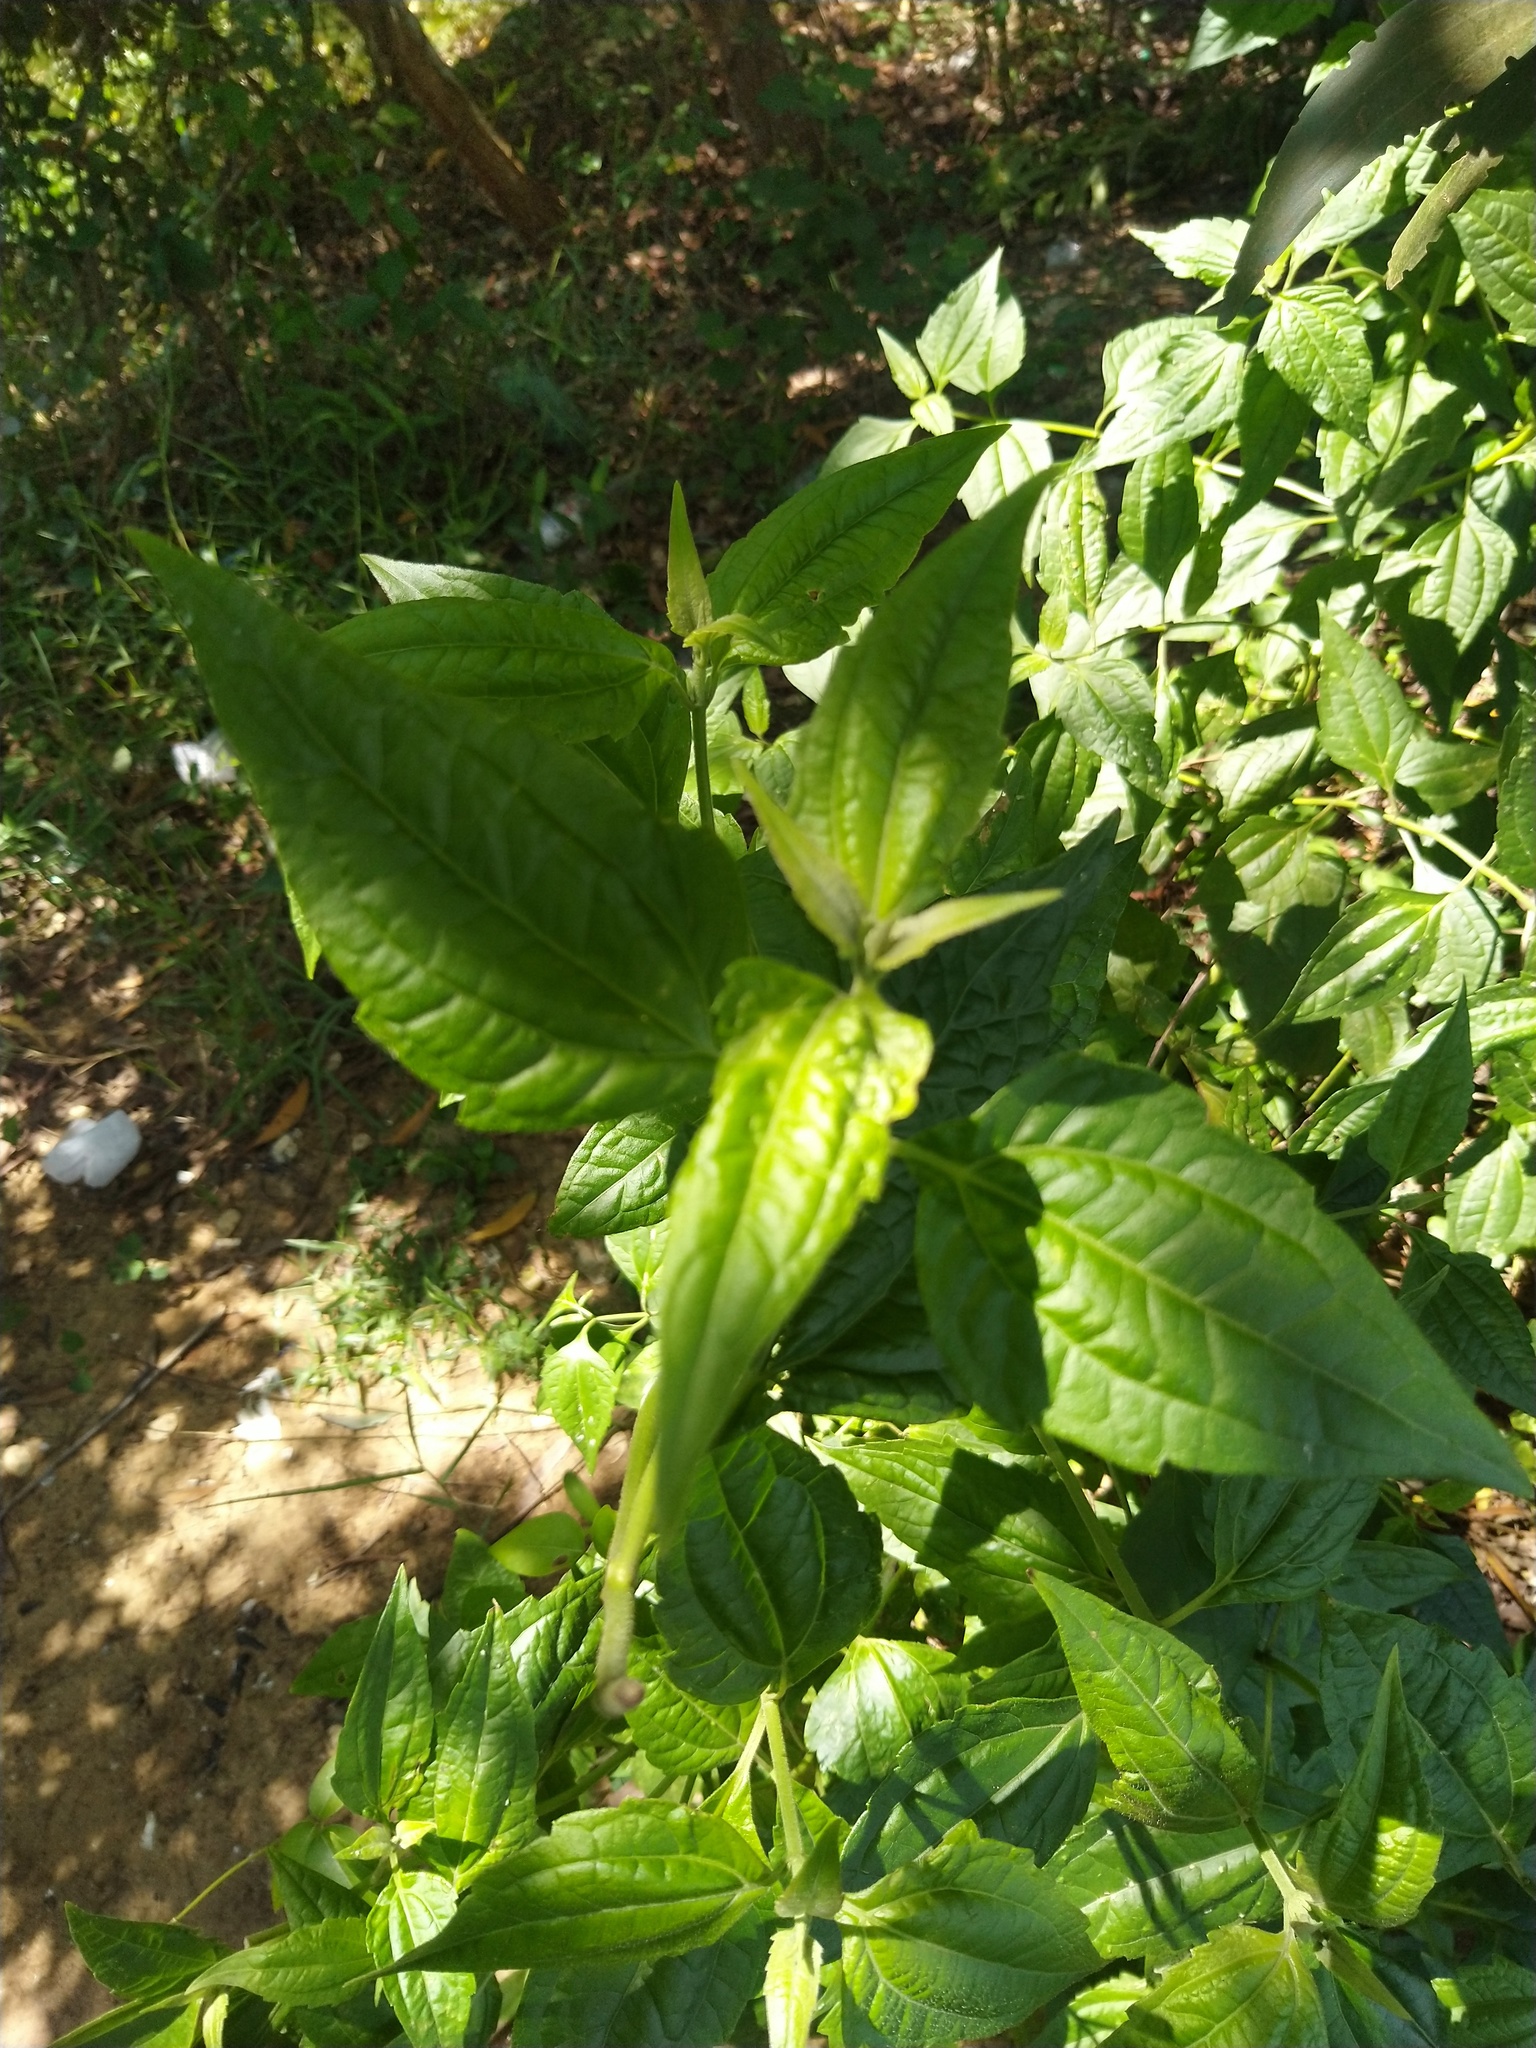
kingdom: Plantae
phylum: Tracheophyta
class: Magnoliopsida
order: Asterales
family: Asteraceae
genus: Chromolaena
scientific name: Chromolaena odorata
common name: Siamweed
